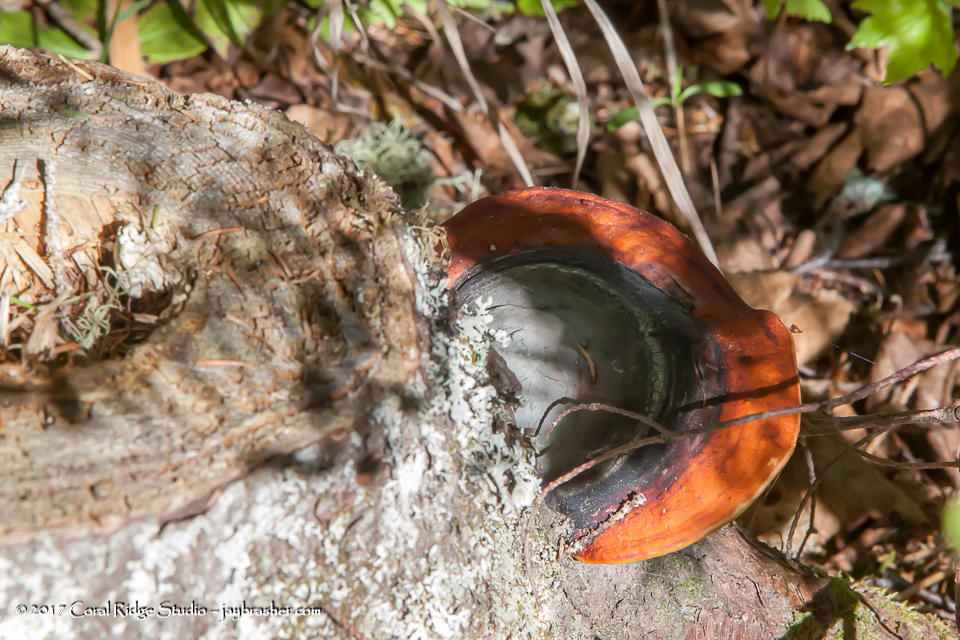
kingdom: Fungi
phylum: Basidiomycota
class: Agaricomycetes
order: Polyporales
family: Fomitopsidaceae
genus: Fomitopsis
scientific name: Fomitopsis mounceae
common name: Northern red belt
